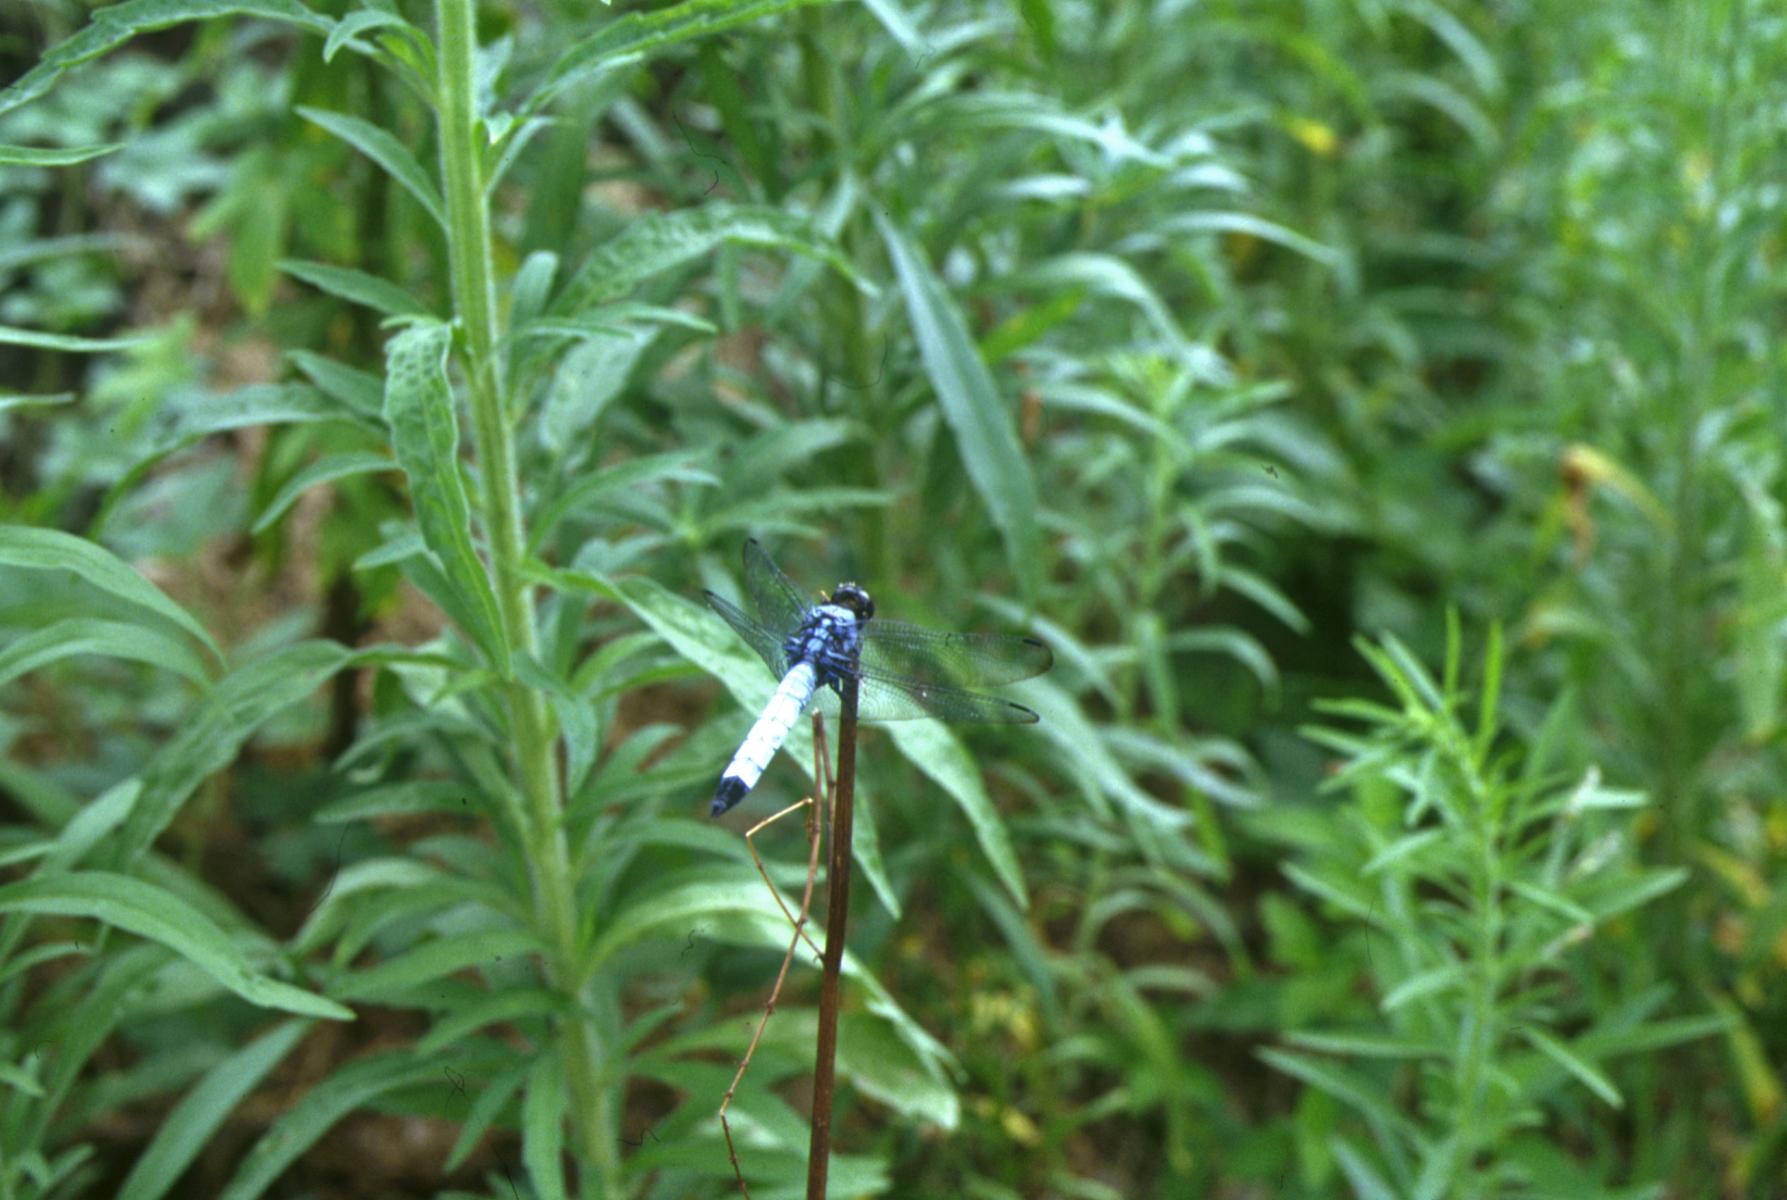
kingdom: Animalia
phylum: Arthropoda
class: Insecta
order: Odonata
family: Libellulidae
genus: Orthetrum
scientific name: Orthetrum melania
